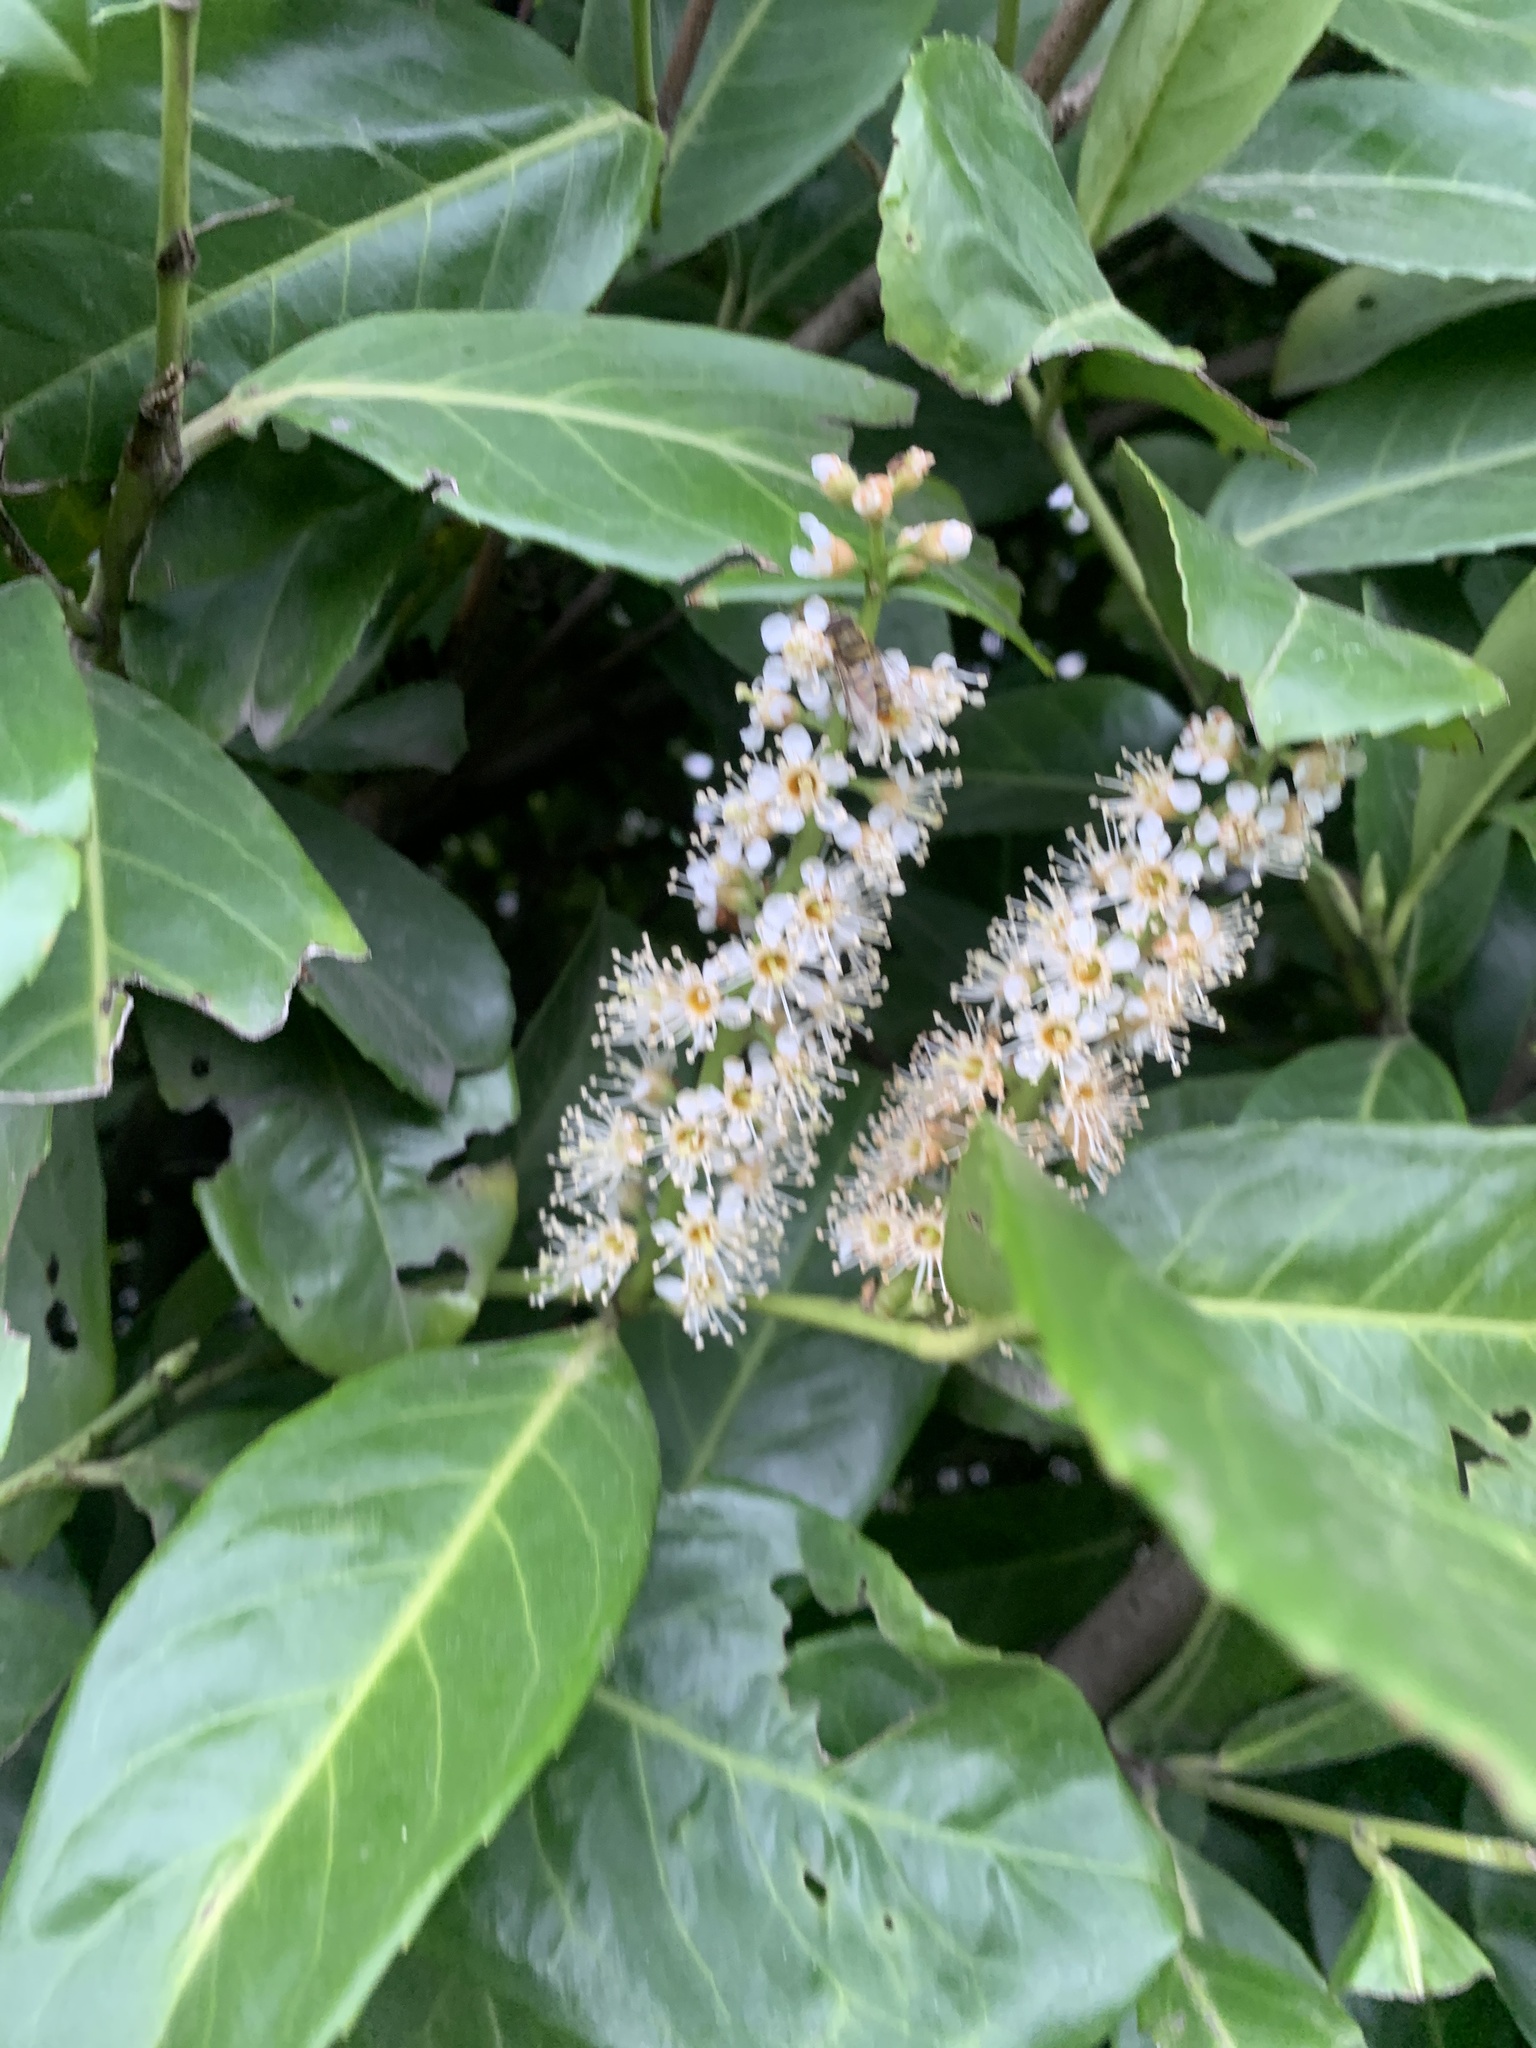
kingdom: Plantae
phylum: Tracheophyta
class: Magnoliopsida
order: Rosales
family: Rosaceae
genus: Prunus
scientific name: Prunus laurocerasus
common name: Cherry laurel
